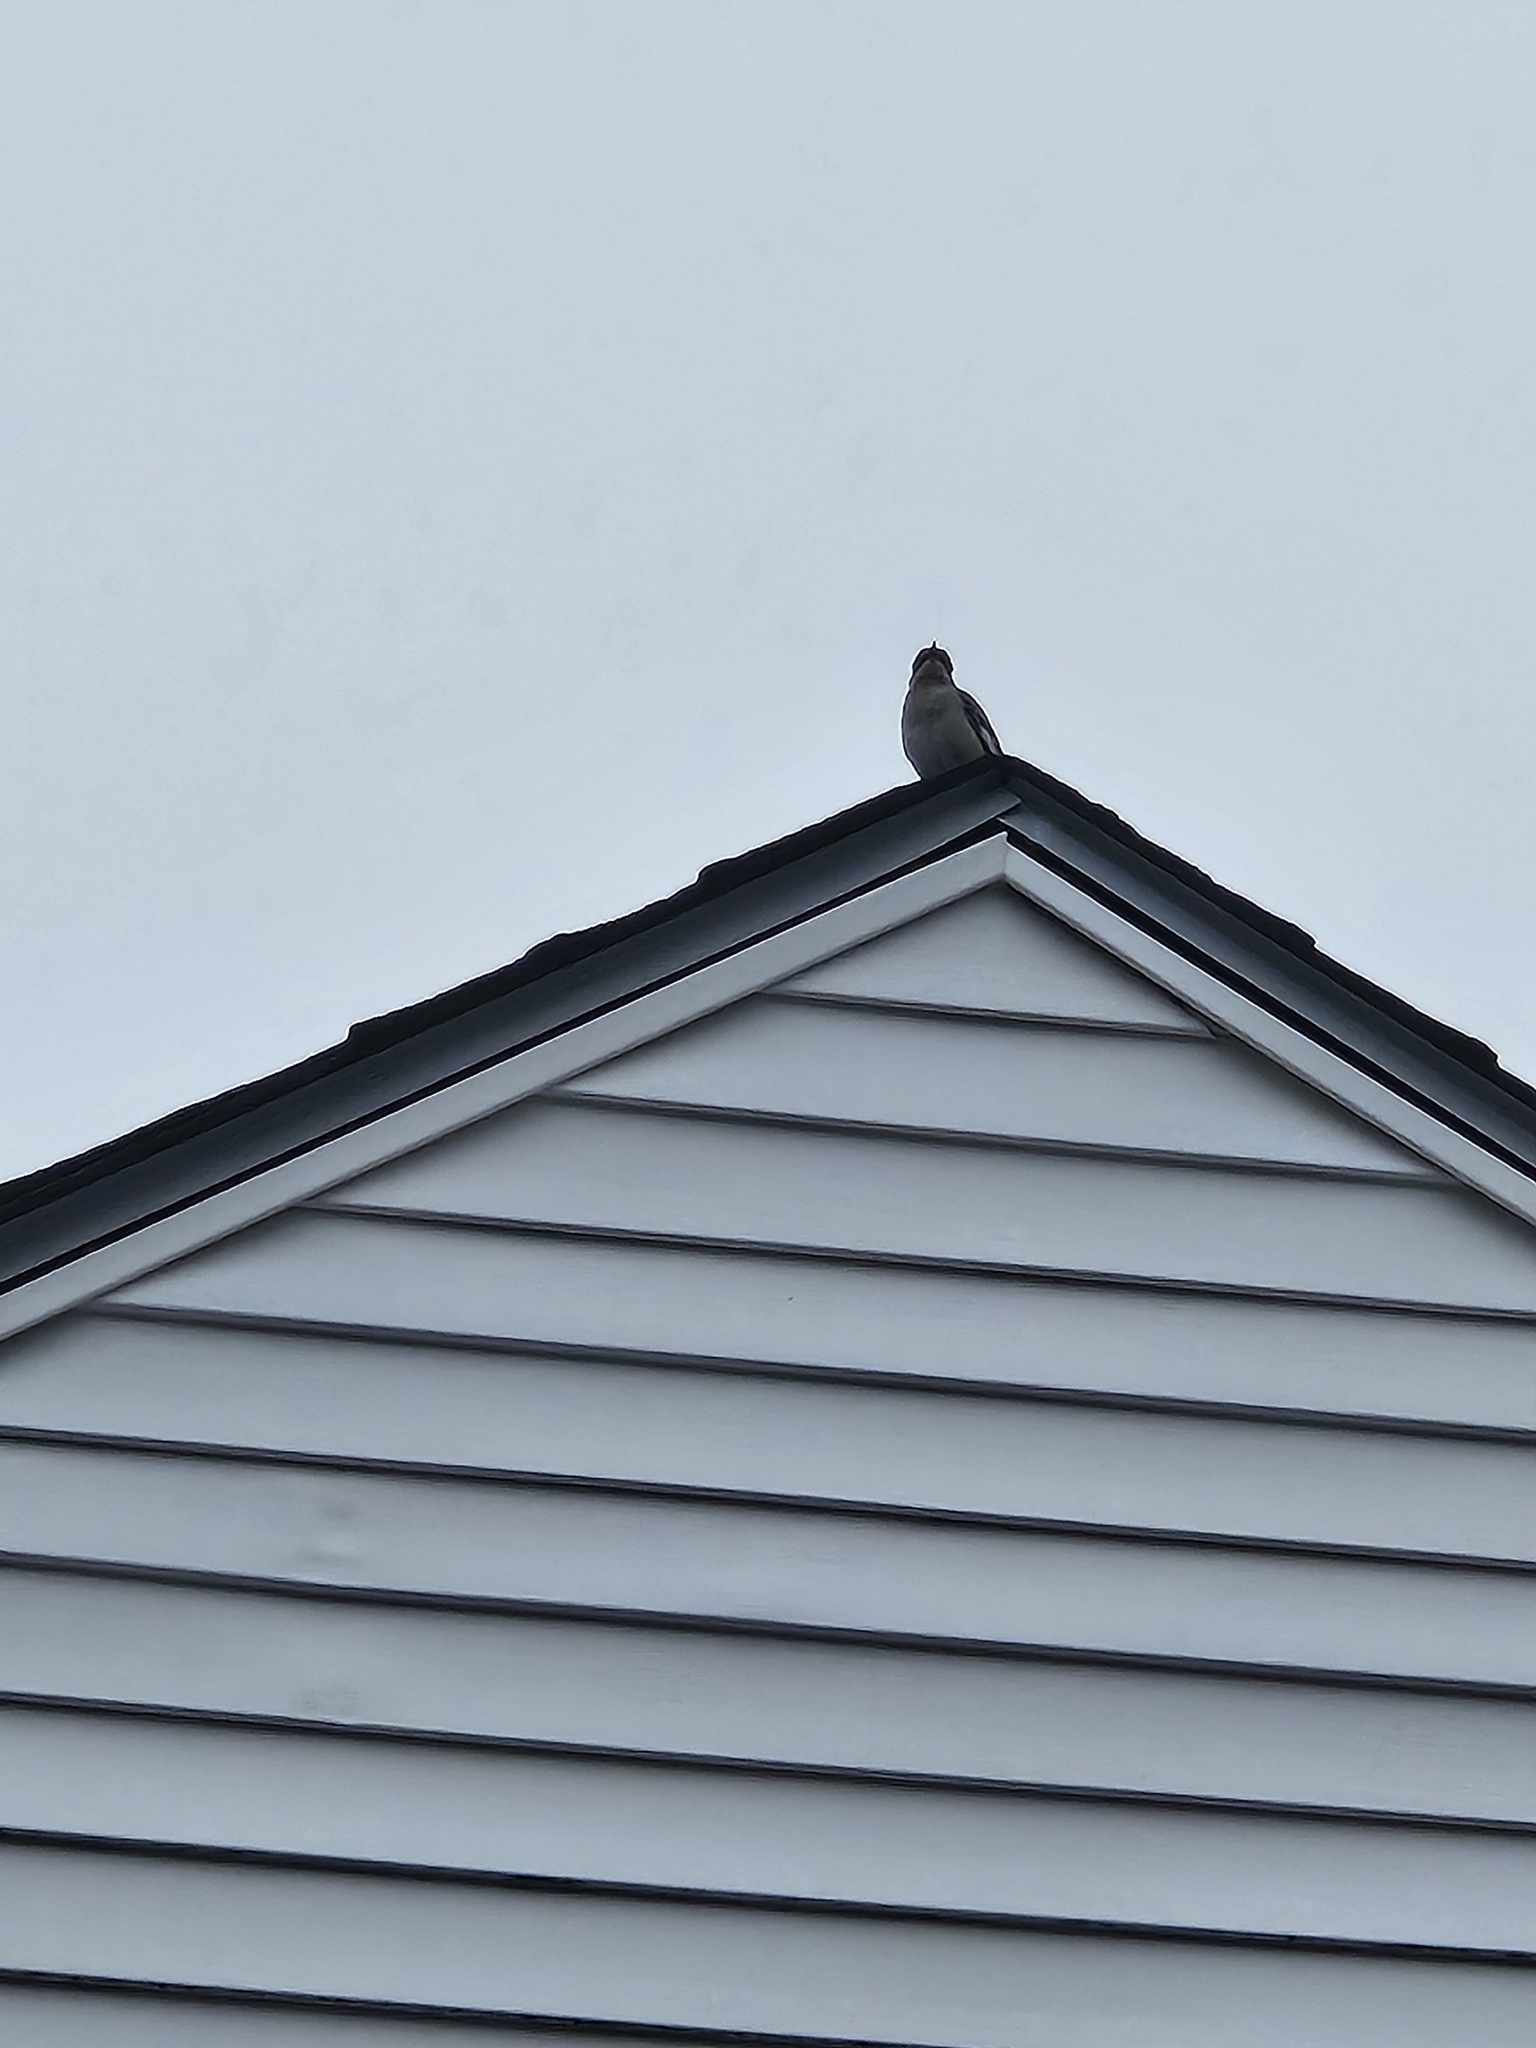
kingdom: Animalia
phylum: Chordata
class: Aves
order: Passeriformes
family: Mimidae
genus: Mimus
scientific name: Mimus polyglottos
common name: Northern mockingbird
